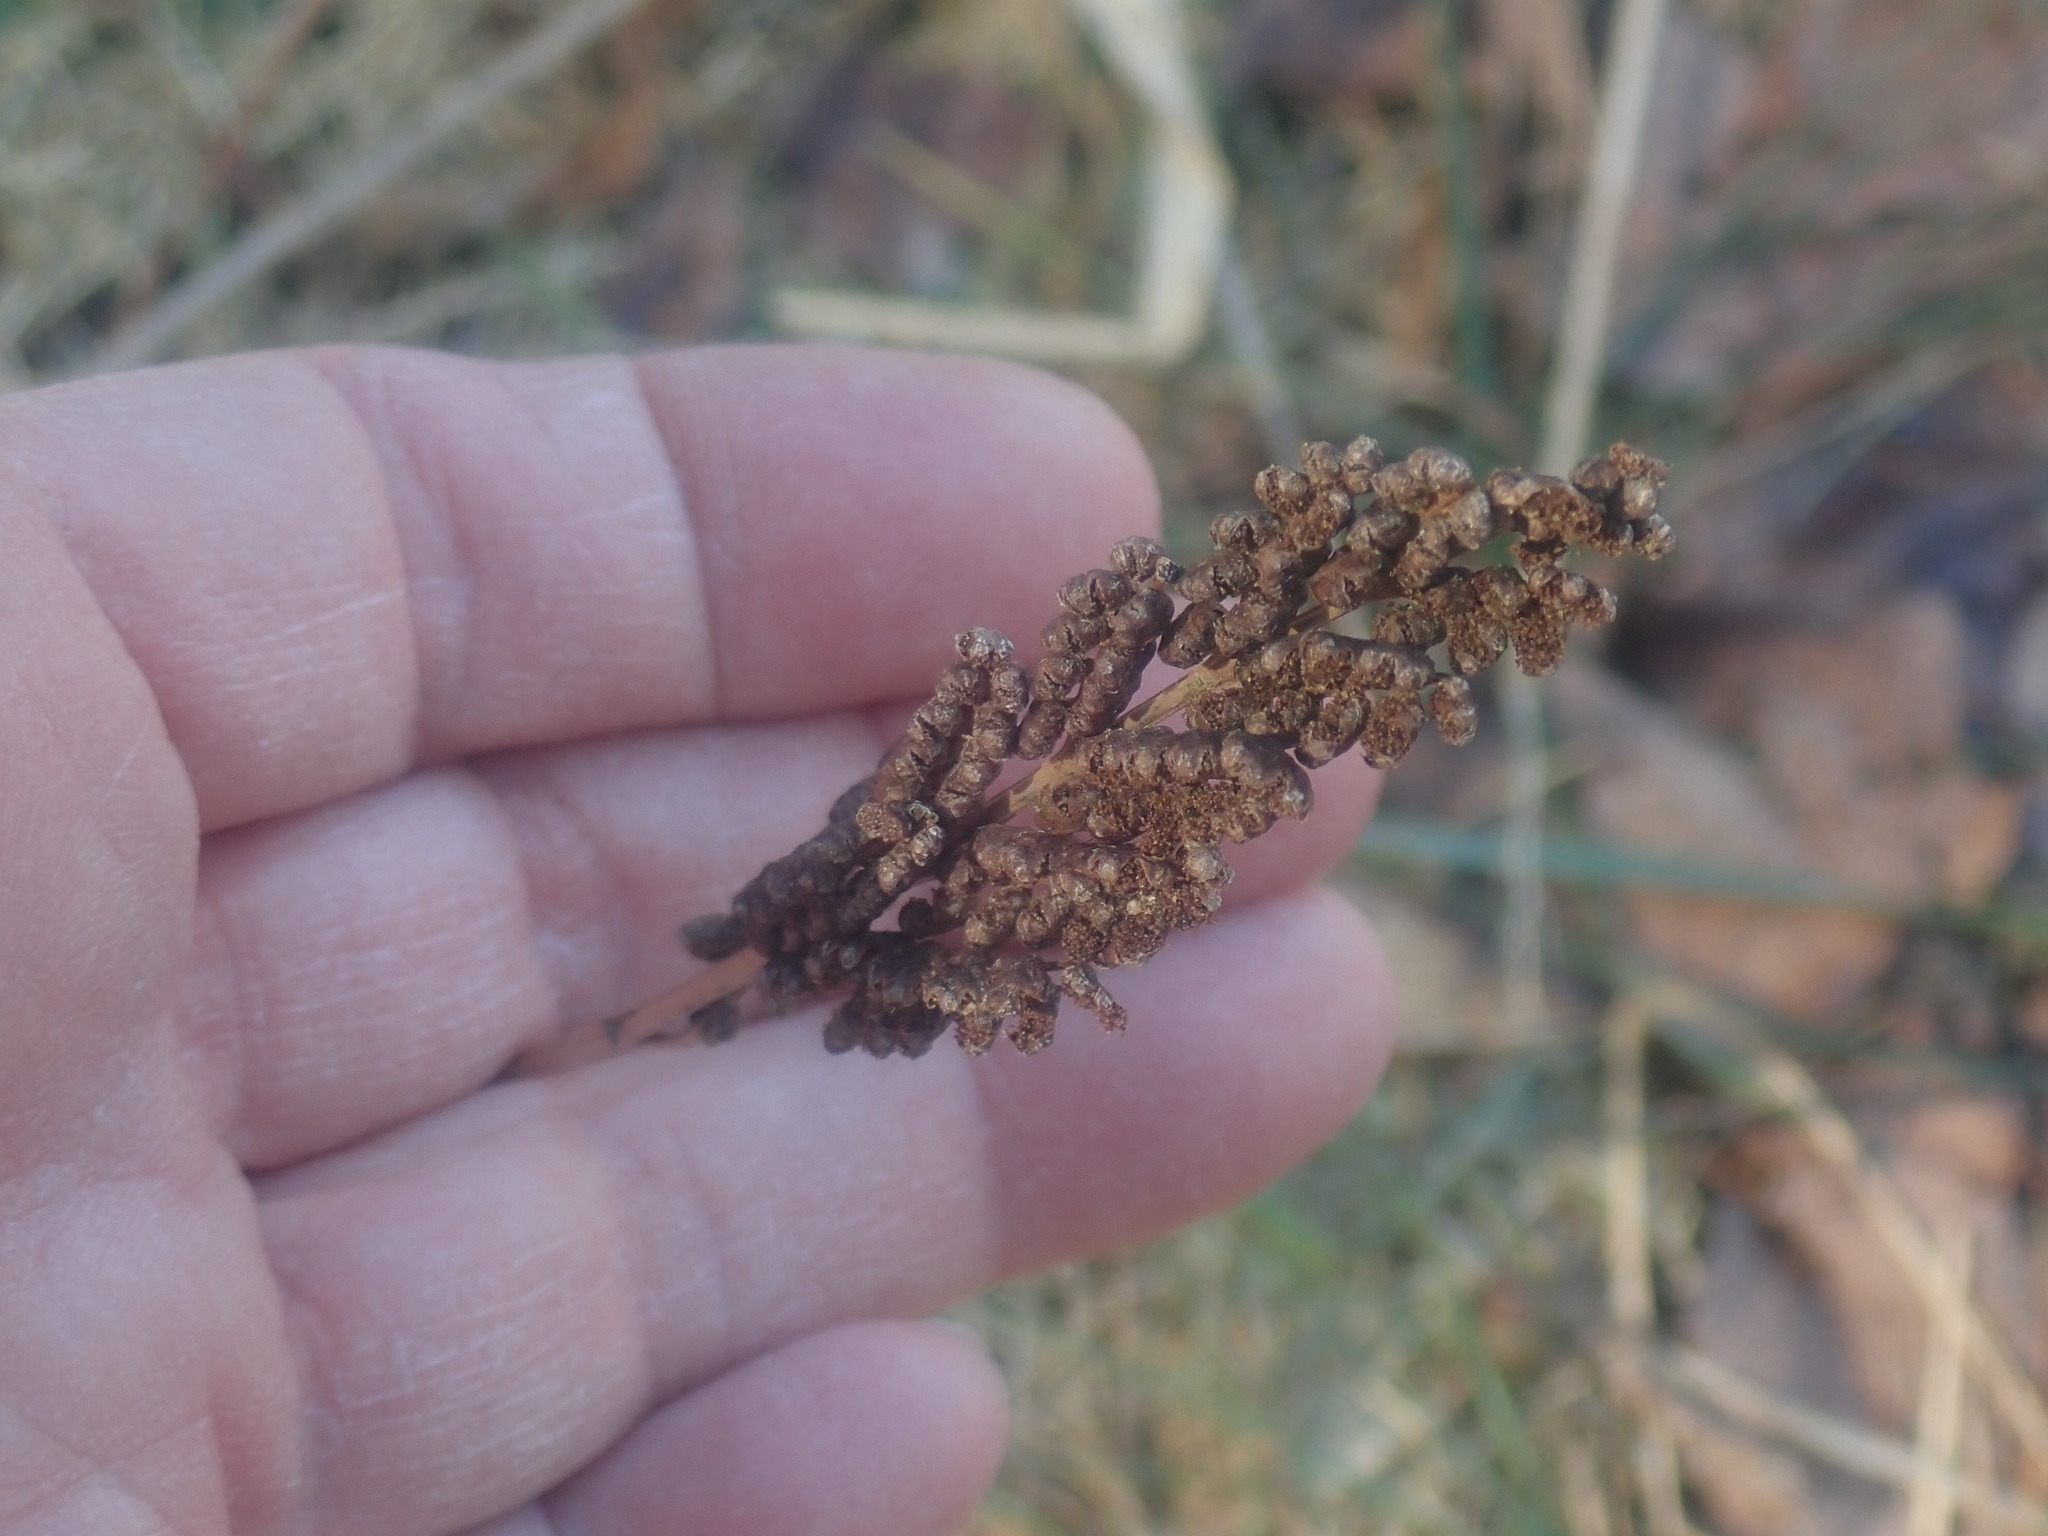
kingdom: Plantae
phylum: Tracheophyta
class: Polypodiopsida
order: Polypodiales
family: Onocleaceae
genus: Onoclea
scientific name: Onoclea sensibilis
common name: Sensitive fern
